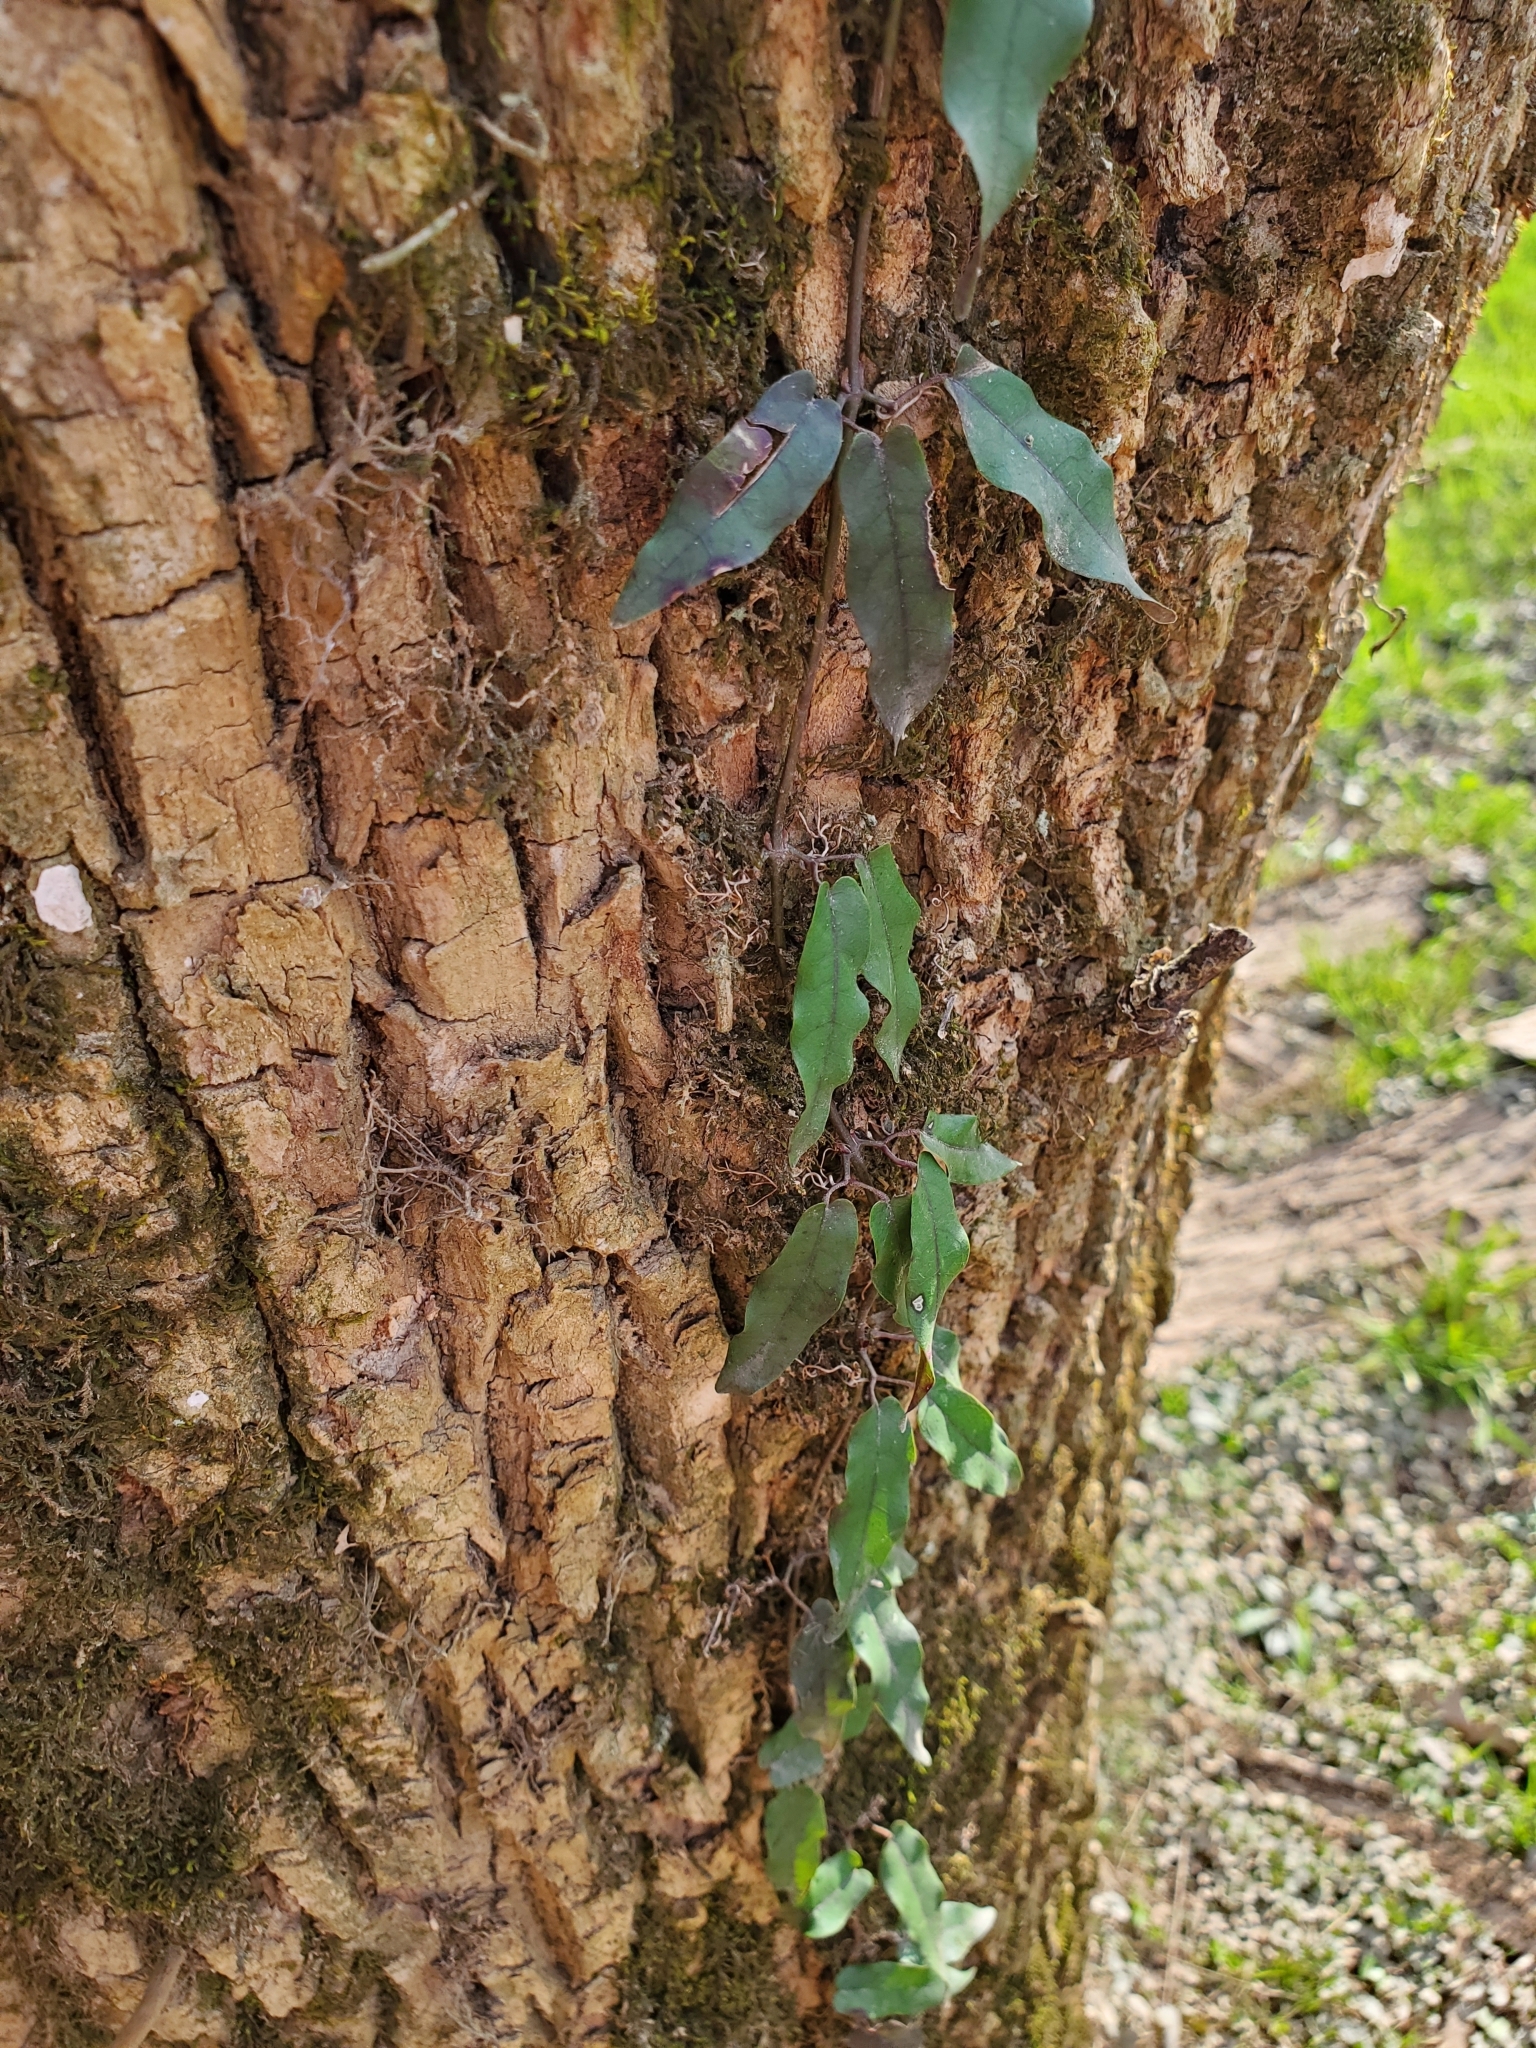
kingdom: Plantae
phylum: Tracheophyta
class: Magnoliopsida
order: Lamiales
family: Bignoniaceae
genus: Bignonia
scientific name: Bignonia capreolata
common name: Crossvine
